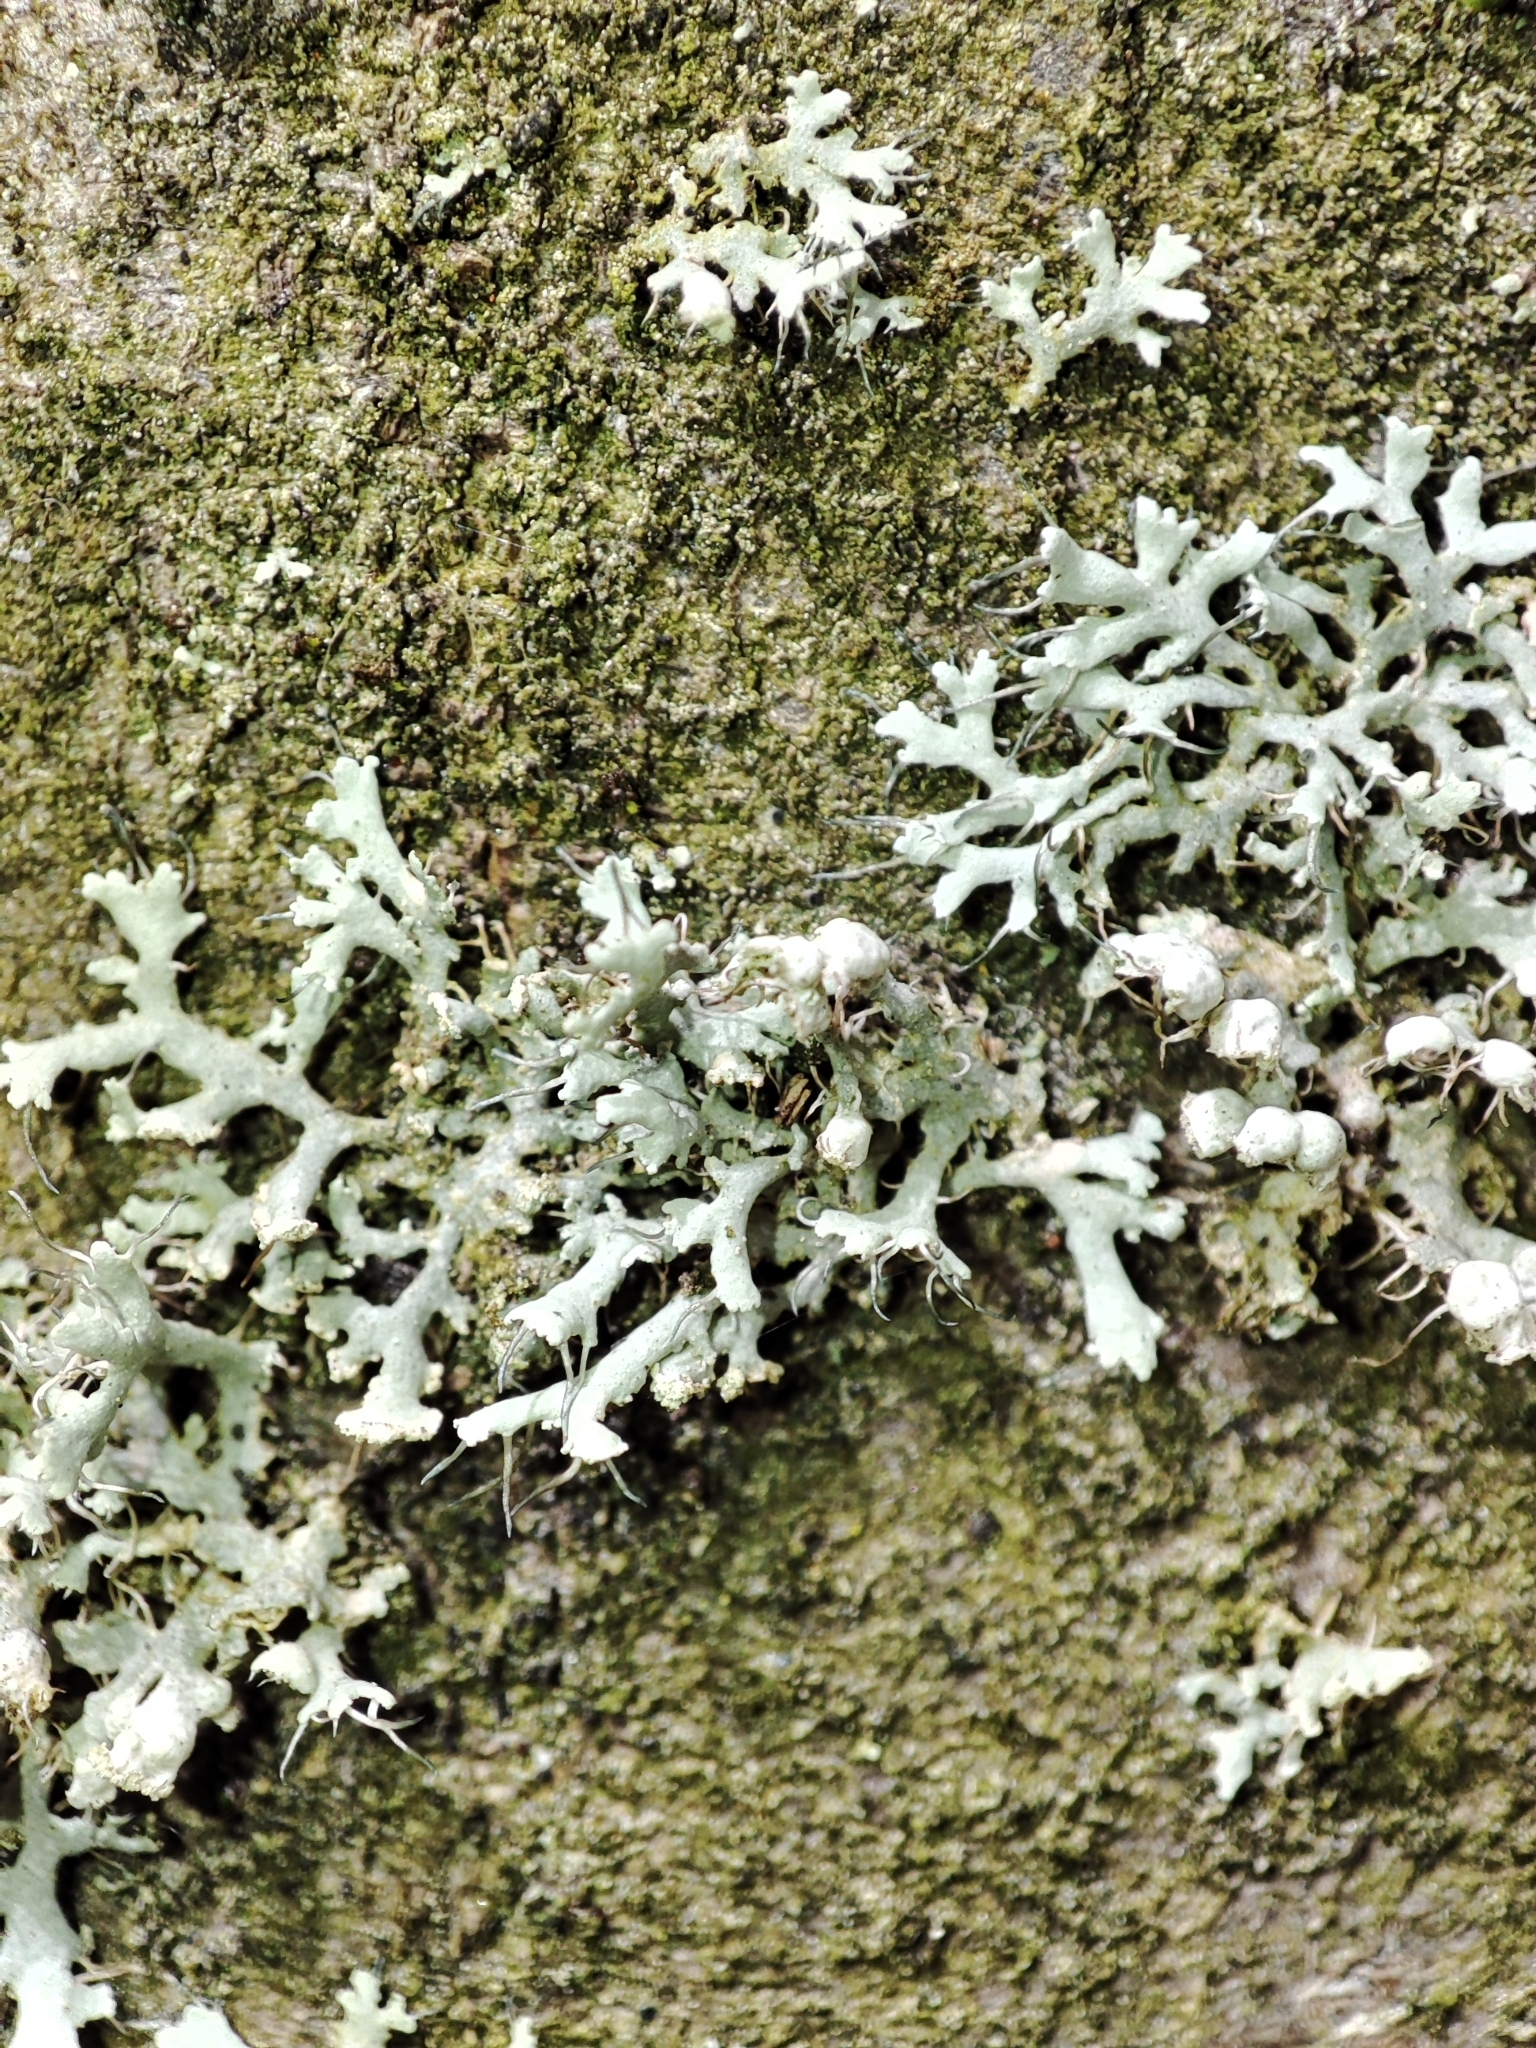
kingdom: Fungi
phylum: Ascomycota
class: Lecanoromycetes
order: Caliciales
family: Physciaceae
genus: Physcia
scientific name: Physcia adscendens
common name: Hooded rosette lichen
